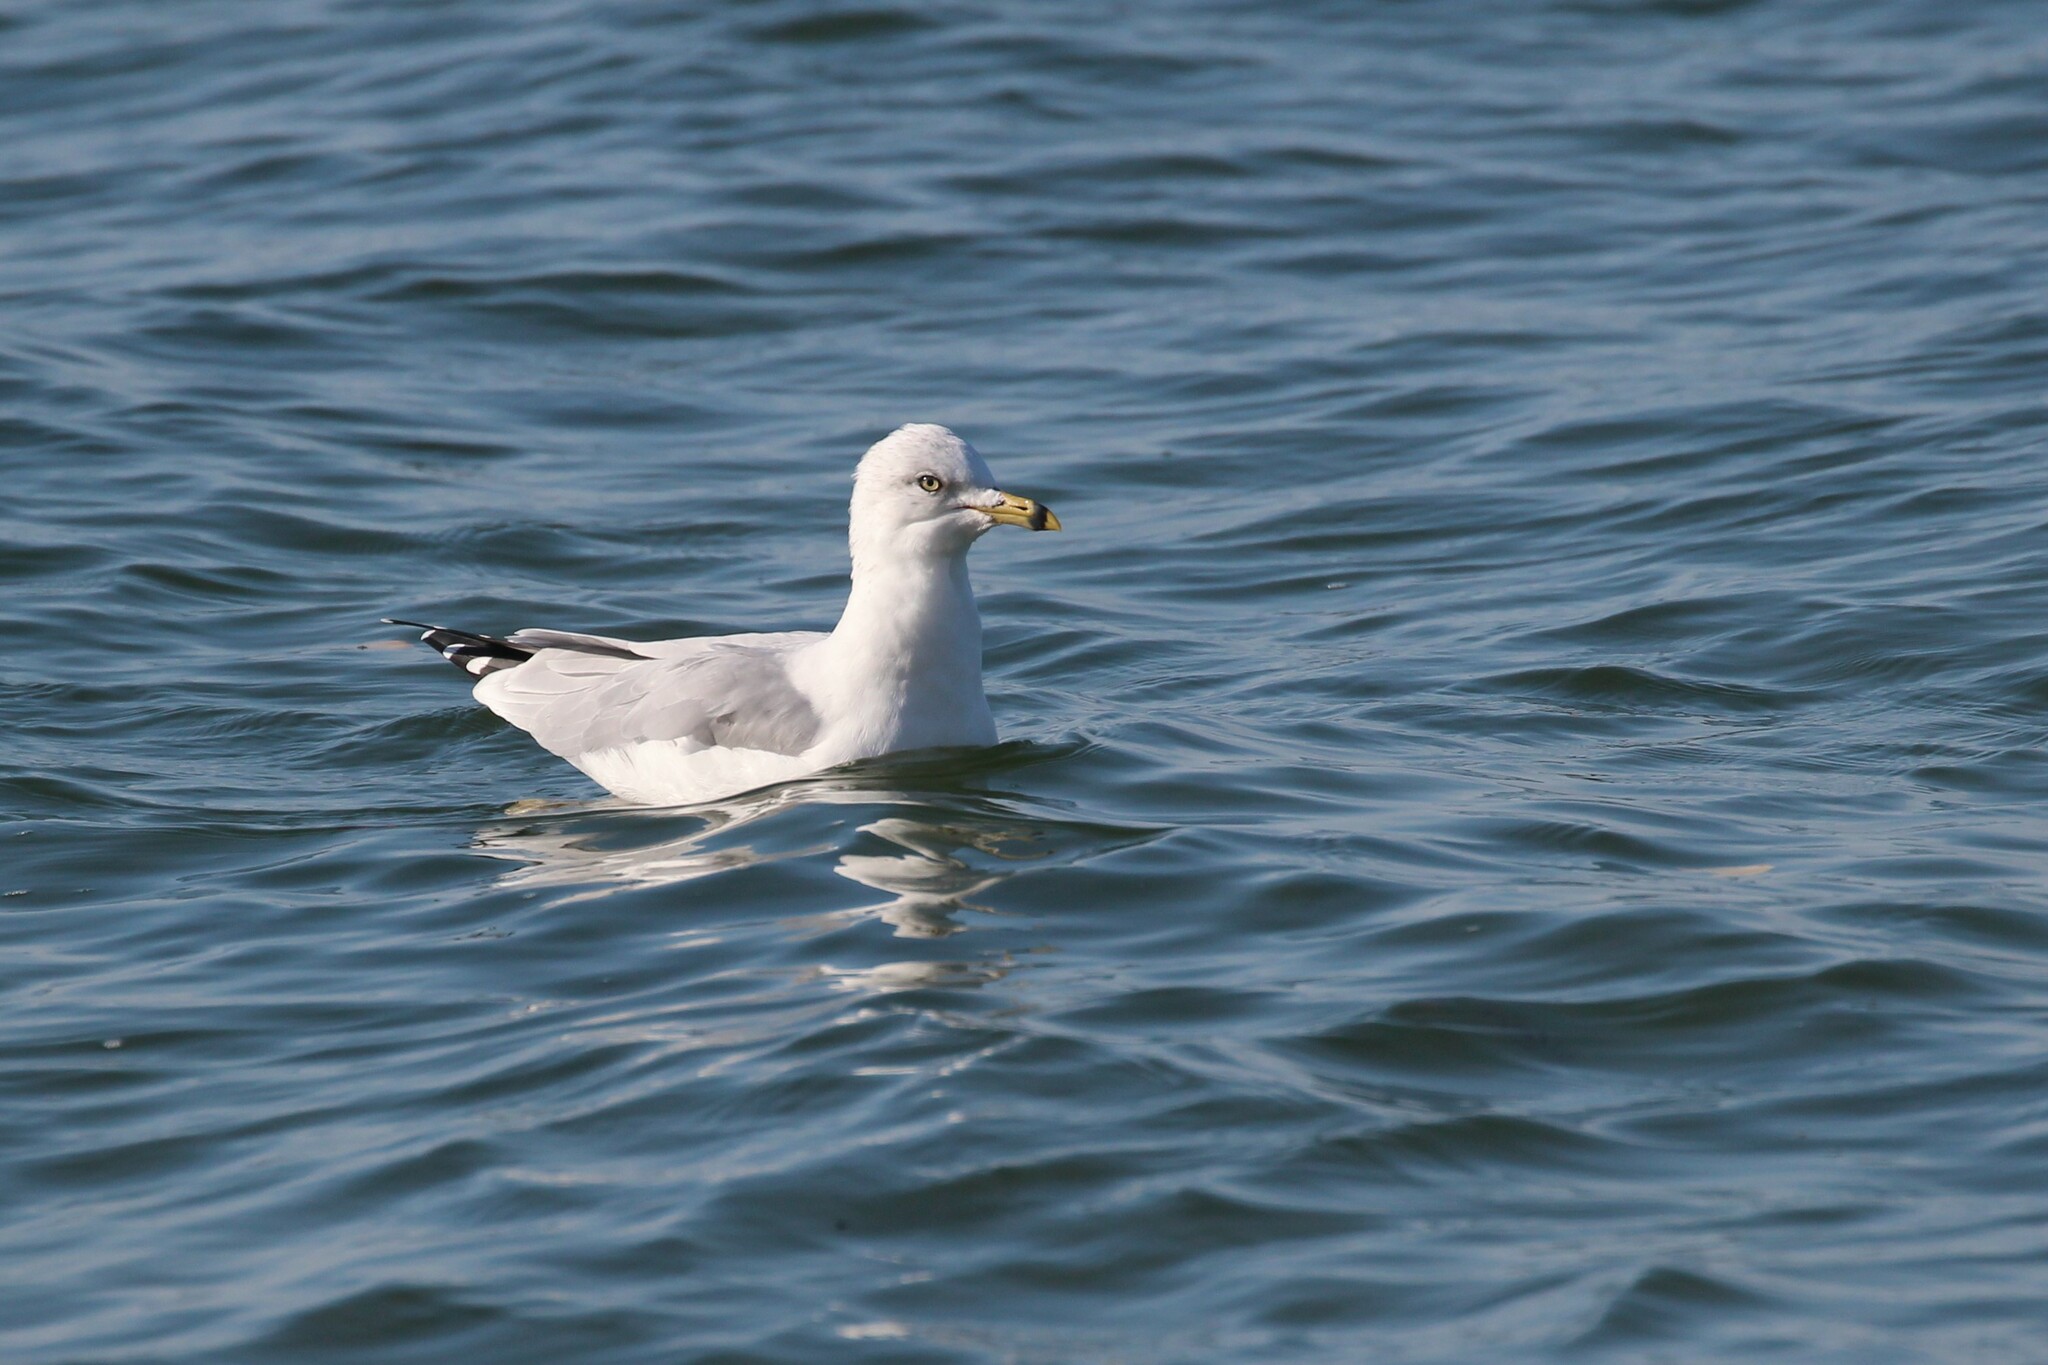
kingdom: Animalia
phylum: Chordata
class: Aves
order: Charadriiformes
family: Laridae
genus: Larus
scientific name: Larus delawarensis
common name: Ring-billed gull
